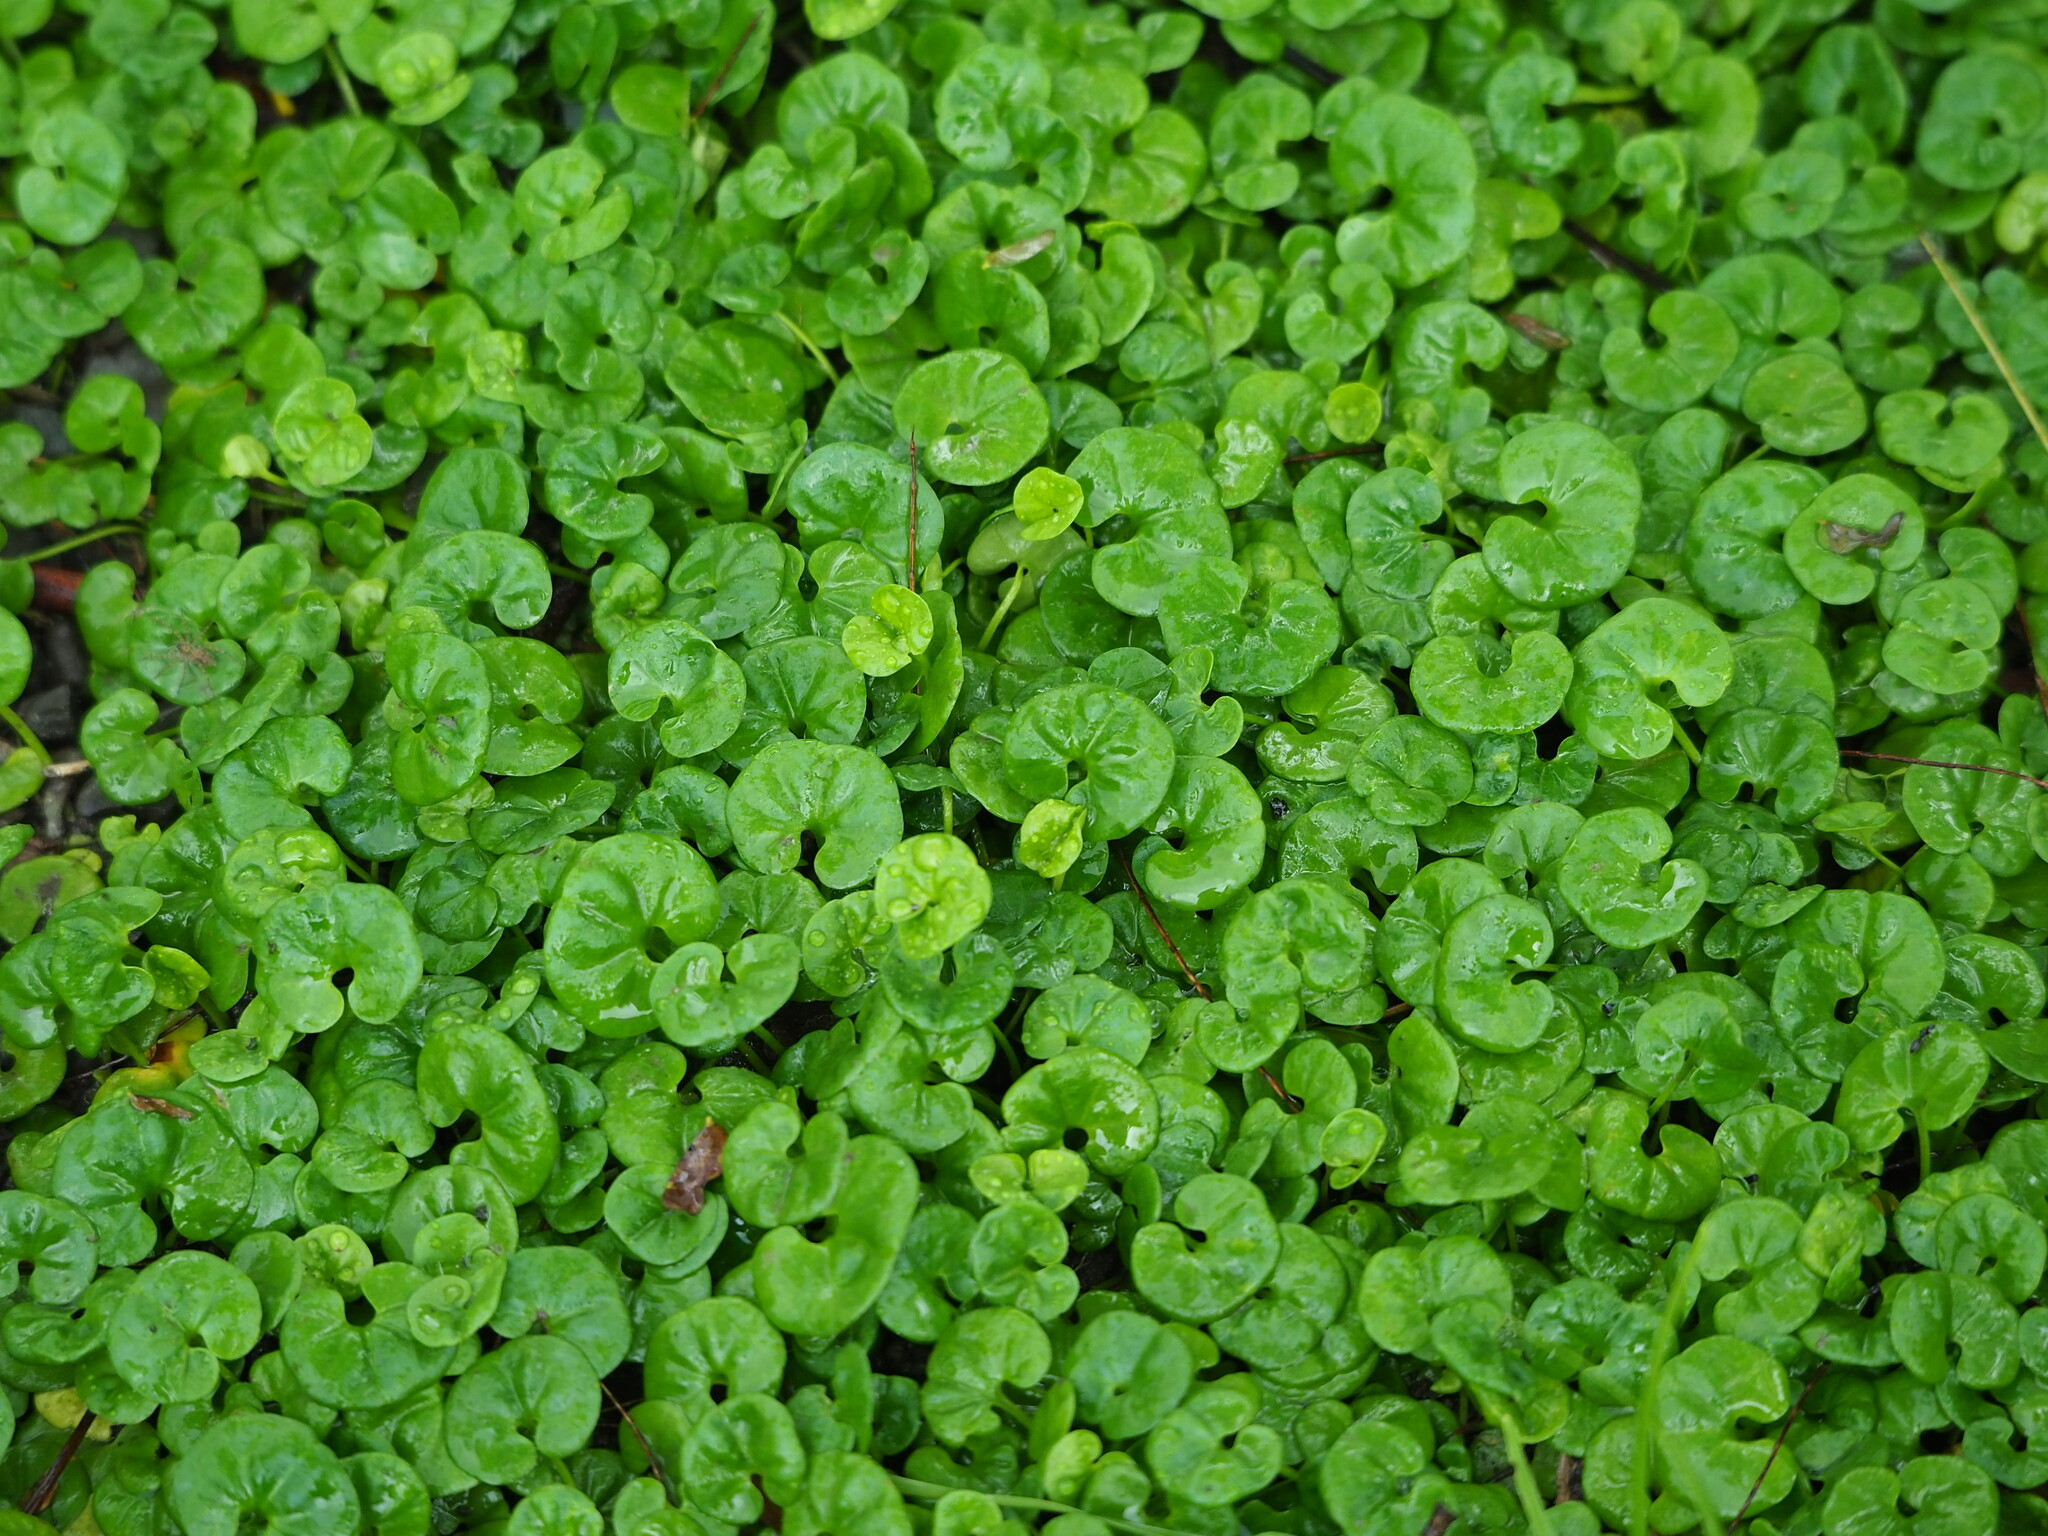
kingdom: Plantae
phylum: Tracheophyta
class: Magnoliopsida
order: Solanales
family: Convolvulaceae
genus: Dichondra
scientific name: Dichondra micrantha
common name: Kidneyweed
